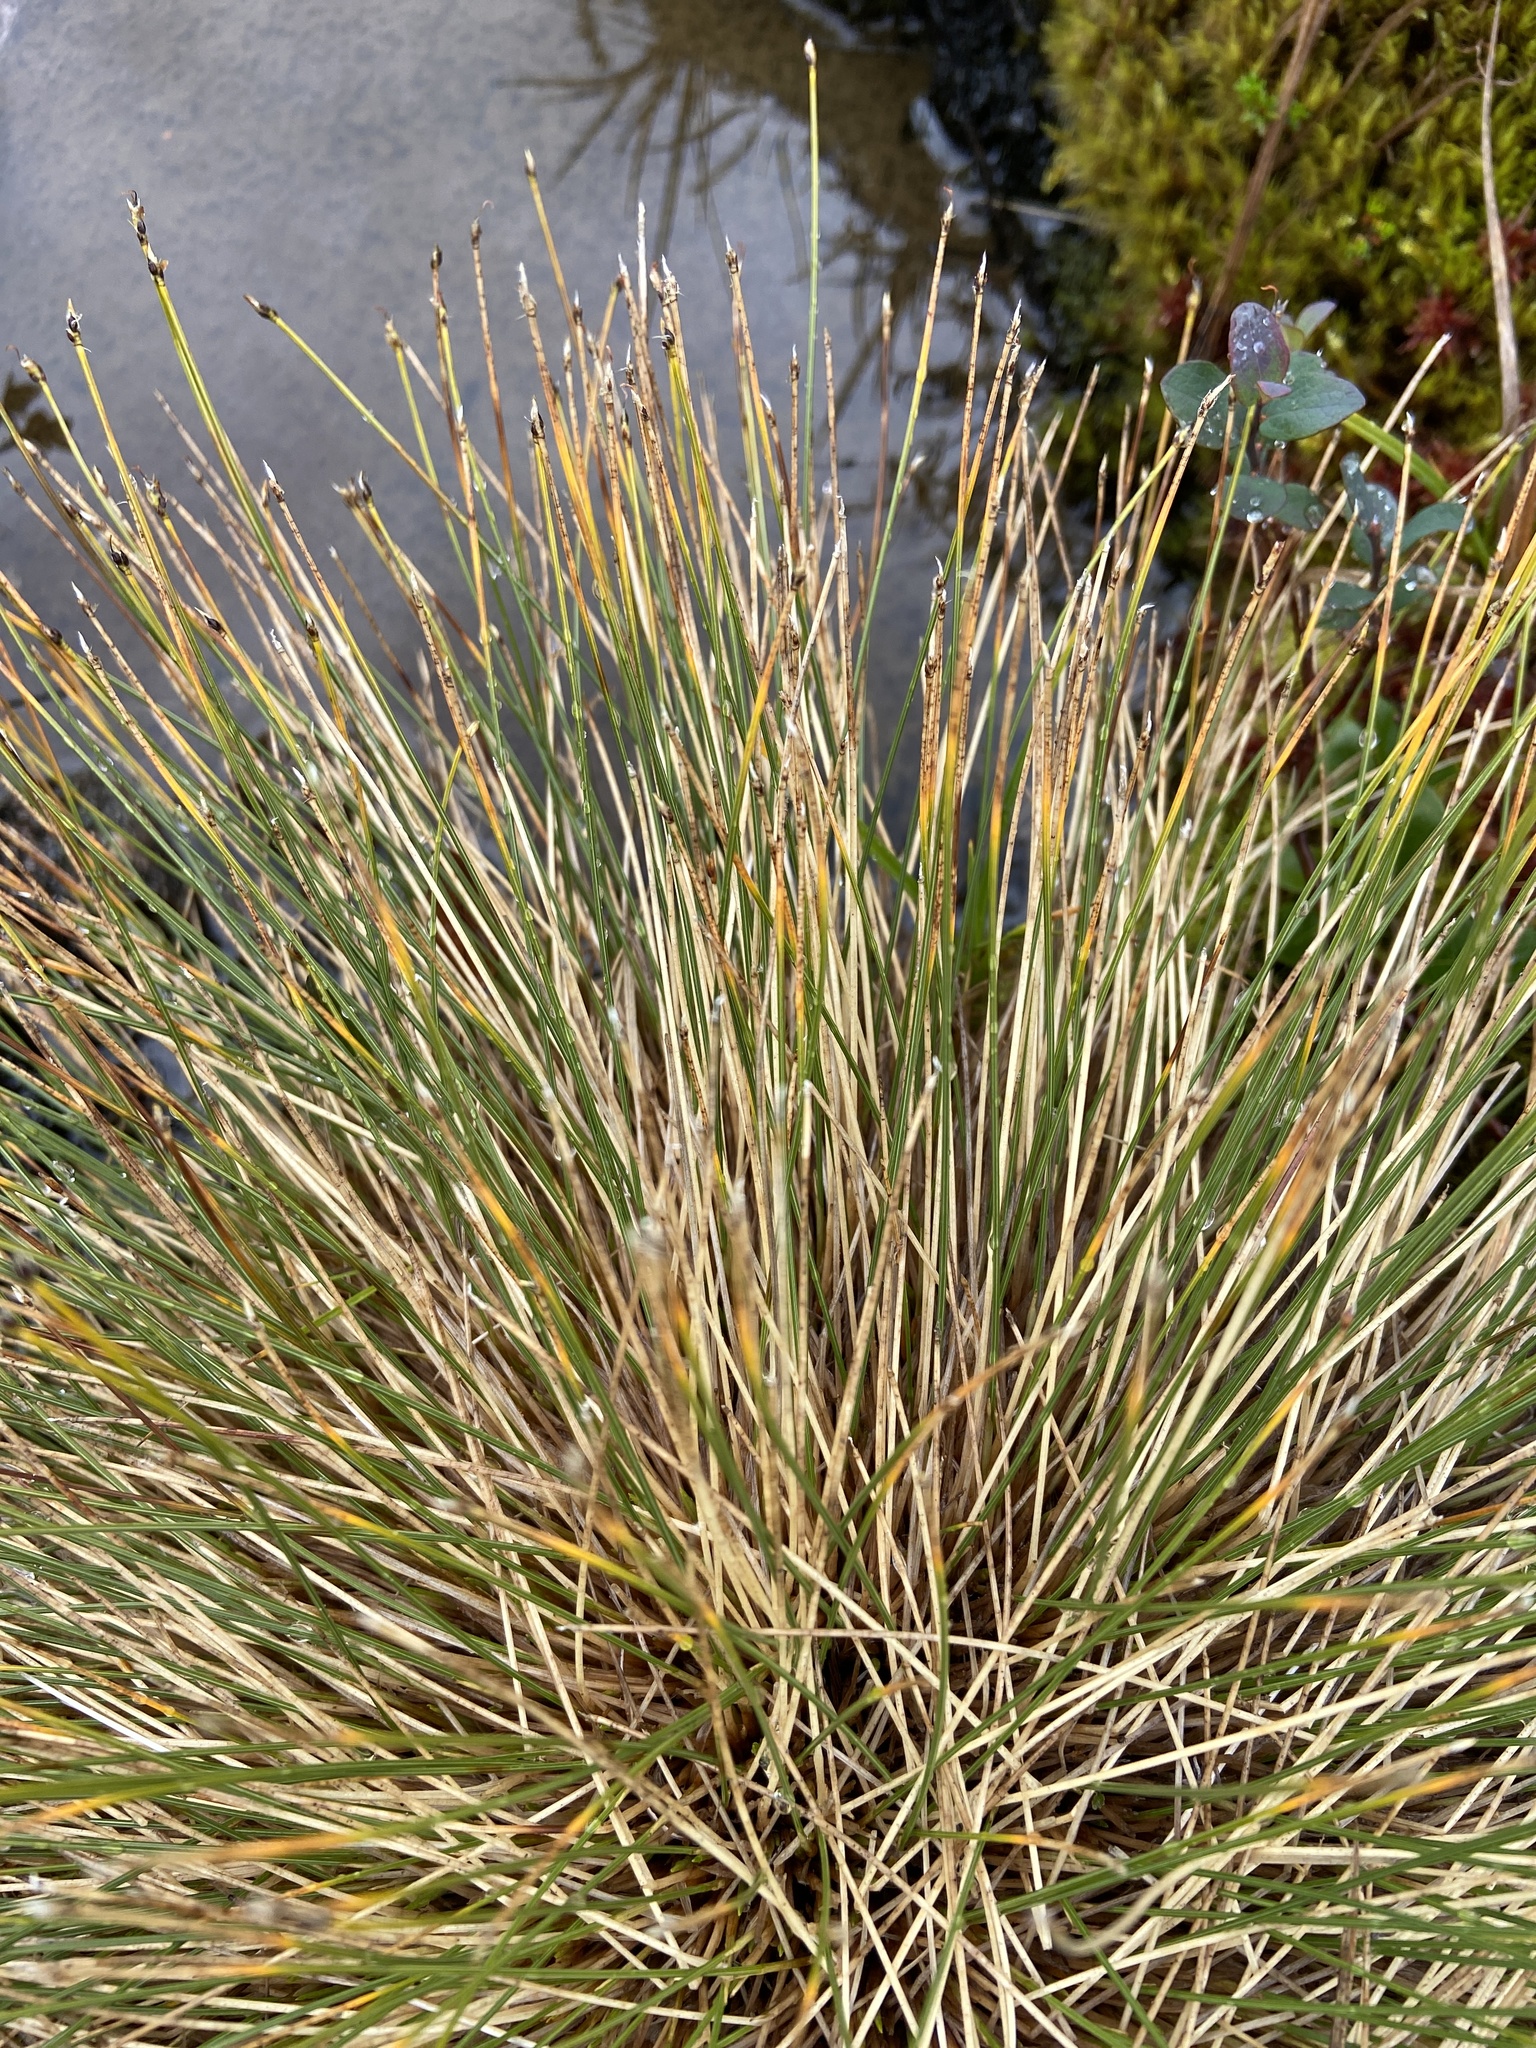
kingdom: Plantae
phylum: Tracheophyta
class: Liliopsida
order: Poales
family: Cyperaceae
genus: Trichophorum
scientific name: Trichophorum cespitosum
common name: Cespitose bulrush
